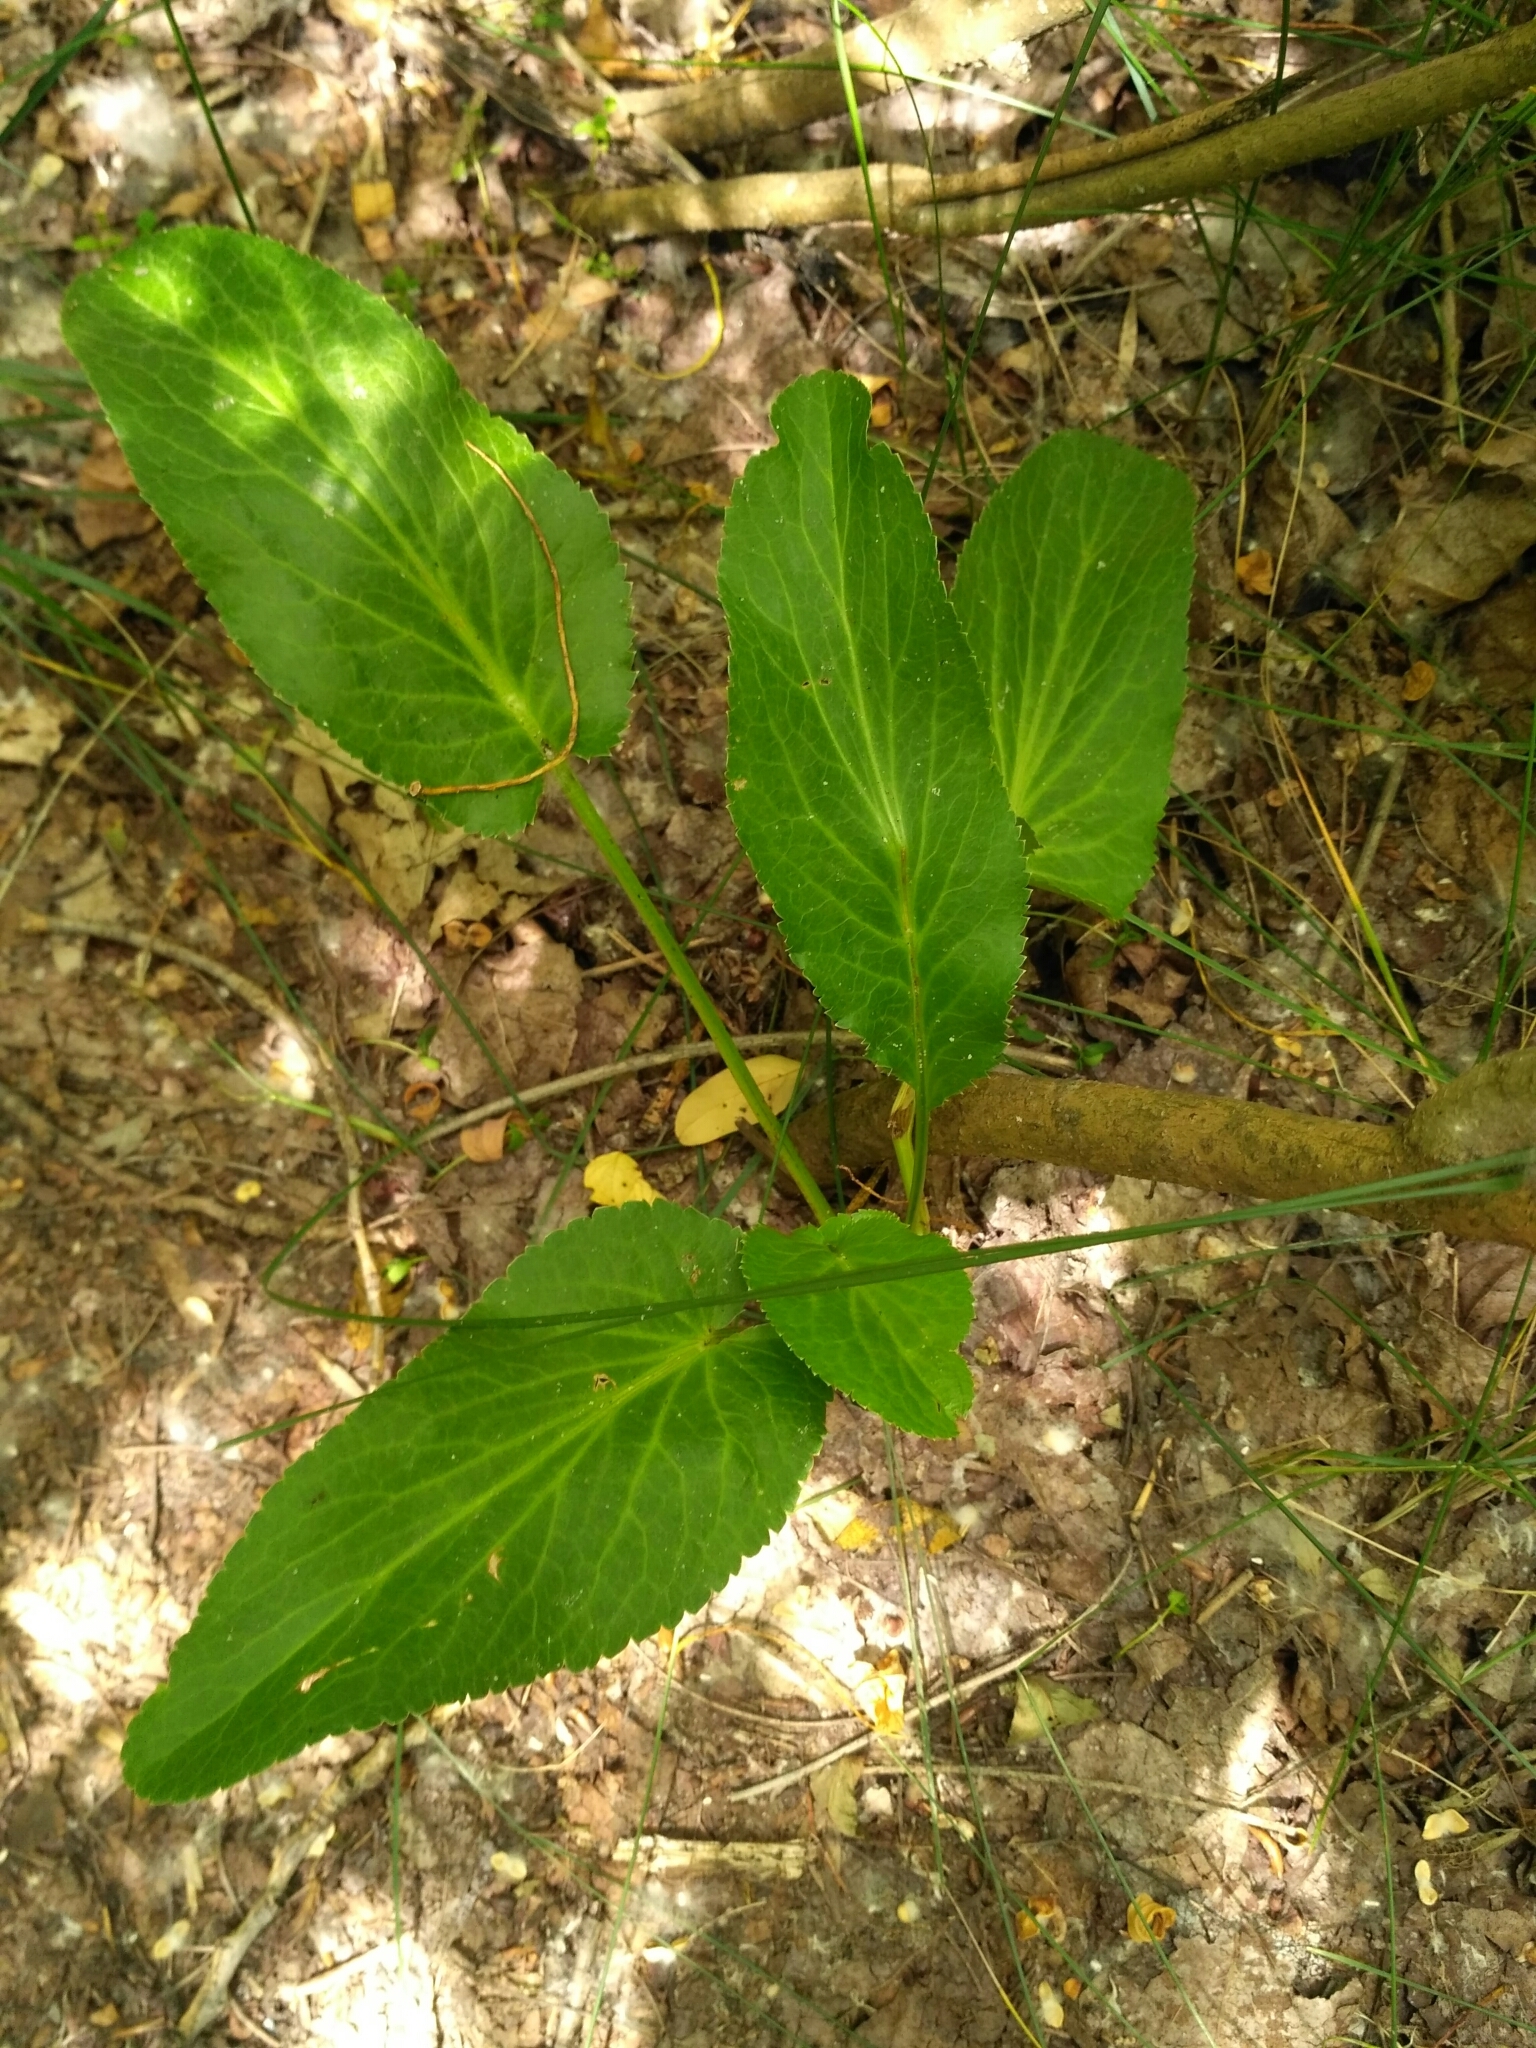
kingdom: Plantae
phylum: Tracheophyta
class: Magnoliopsida
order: Apiales
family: Apiaceae
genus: Eryngium
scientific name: Eryngium planum
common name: Blue eryngo
